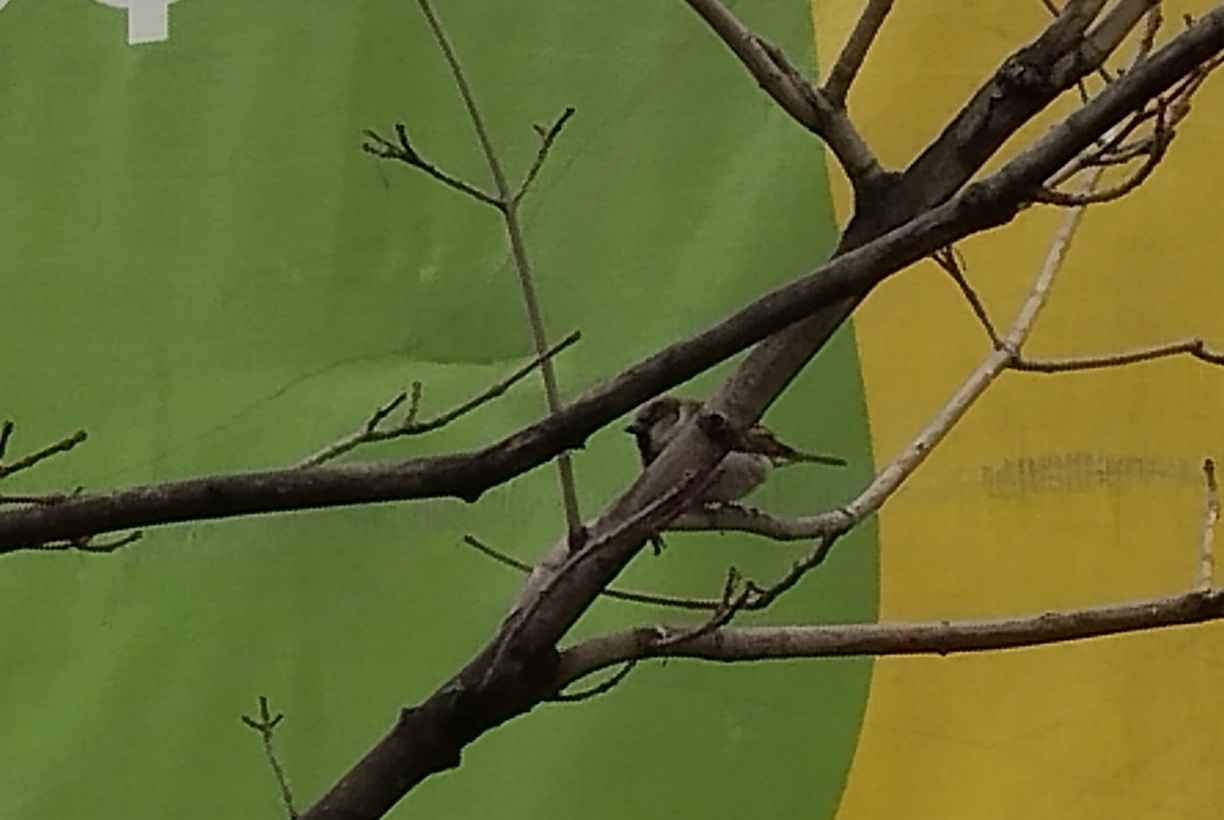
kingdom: Animalia
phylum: Chordata
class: Aves
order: Passeriformes
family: Passeridae
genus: Passer
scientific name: Passer domesticus
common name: House sparrow
